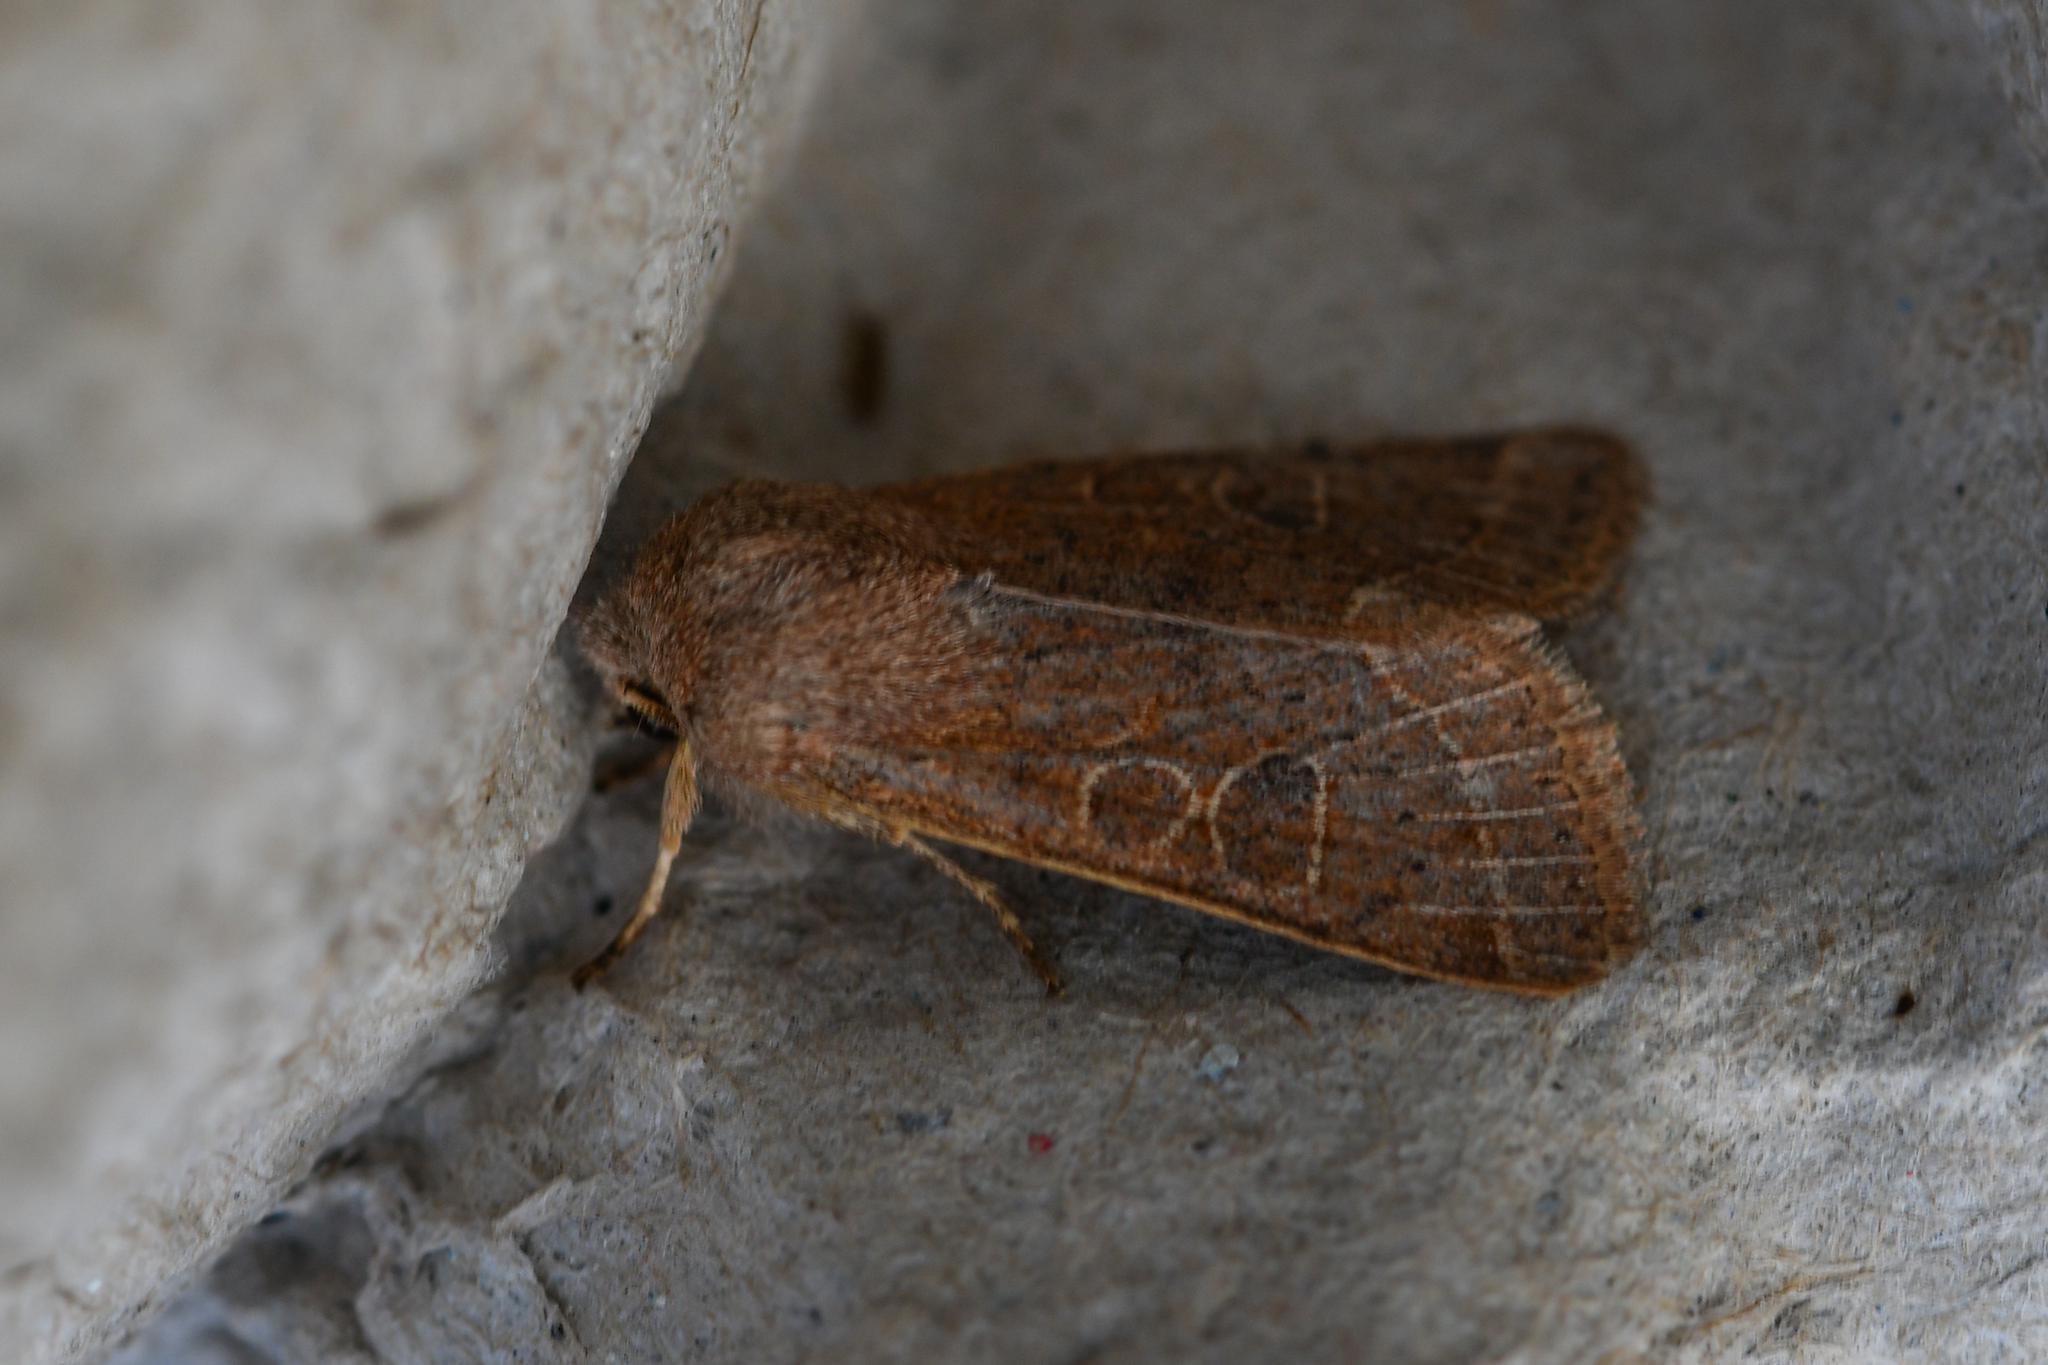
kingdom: Animalia
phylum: Arthropoda
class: Insecta
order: Lepidoptera
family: Noctuidae
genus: Orthosia
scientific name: Orthosia cerasi
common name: Common quaker
